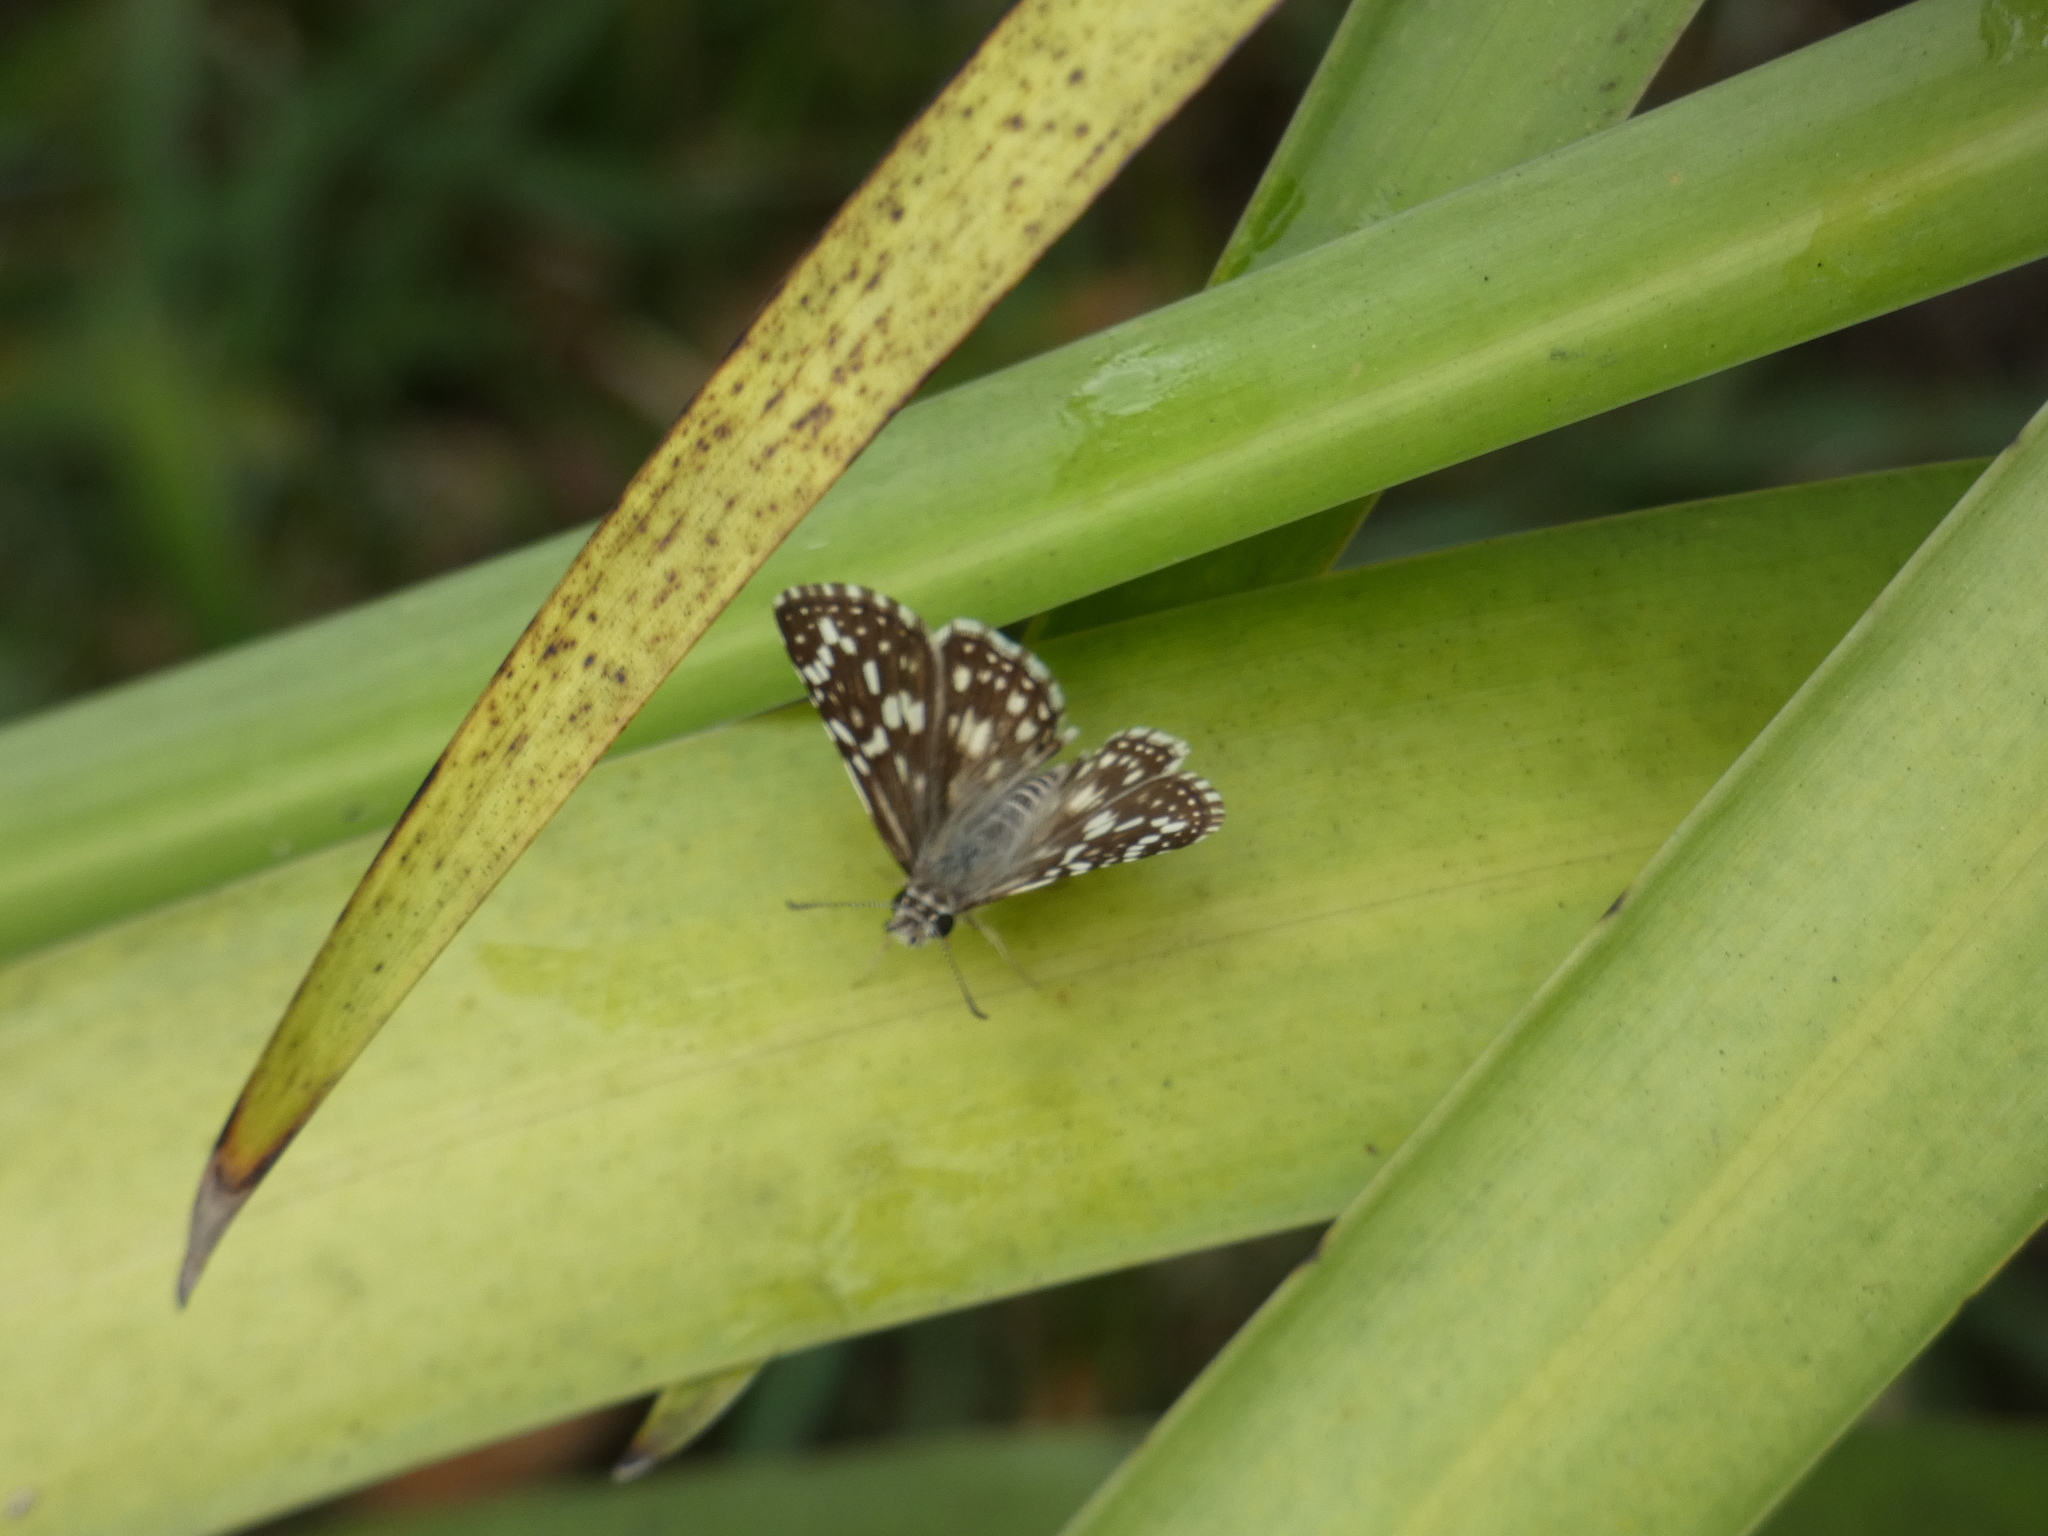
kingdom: Animalia
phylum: Arthropoda
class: Insecta
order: Lepidoptera
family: Hesperiidae
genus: Pyrgus
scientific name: Pyrgus oileus
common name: Tropical checkered-skipper
